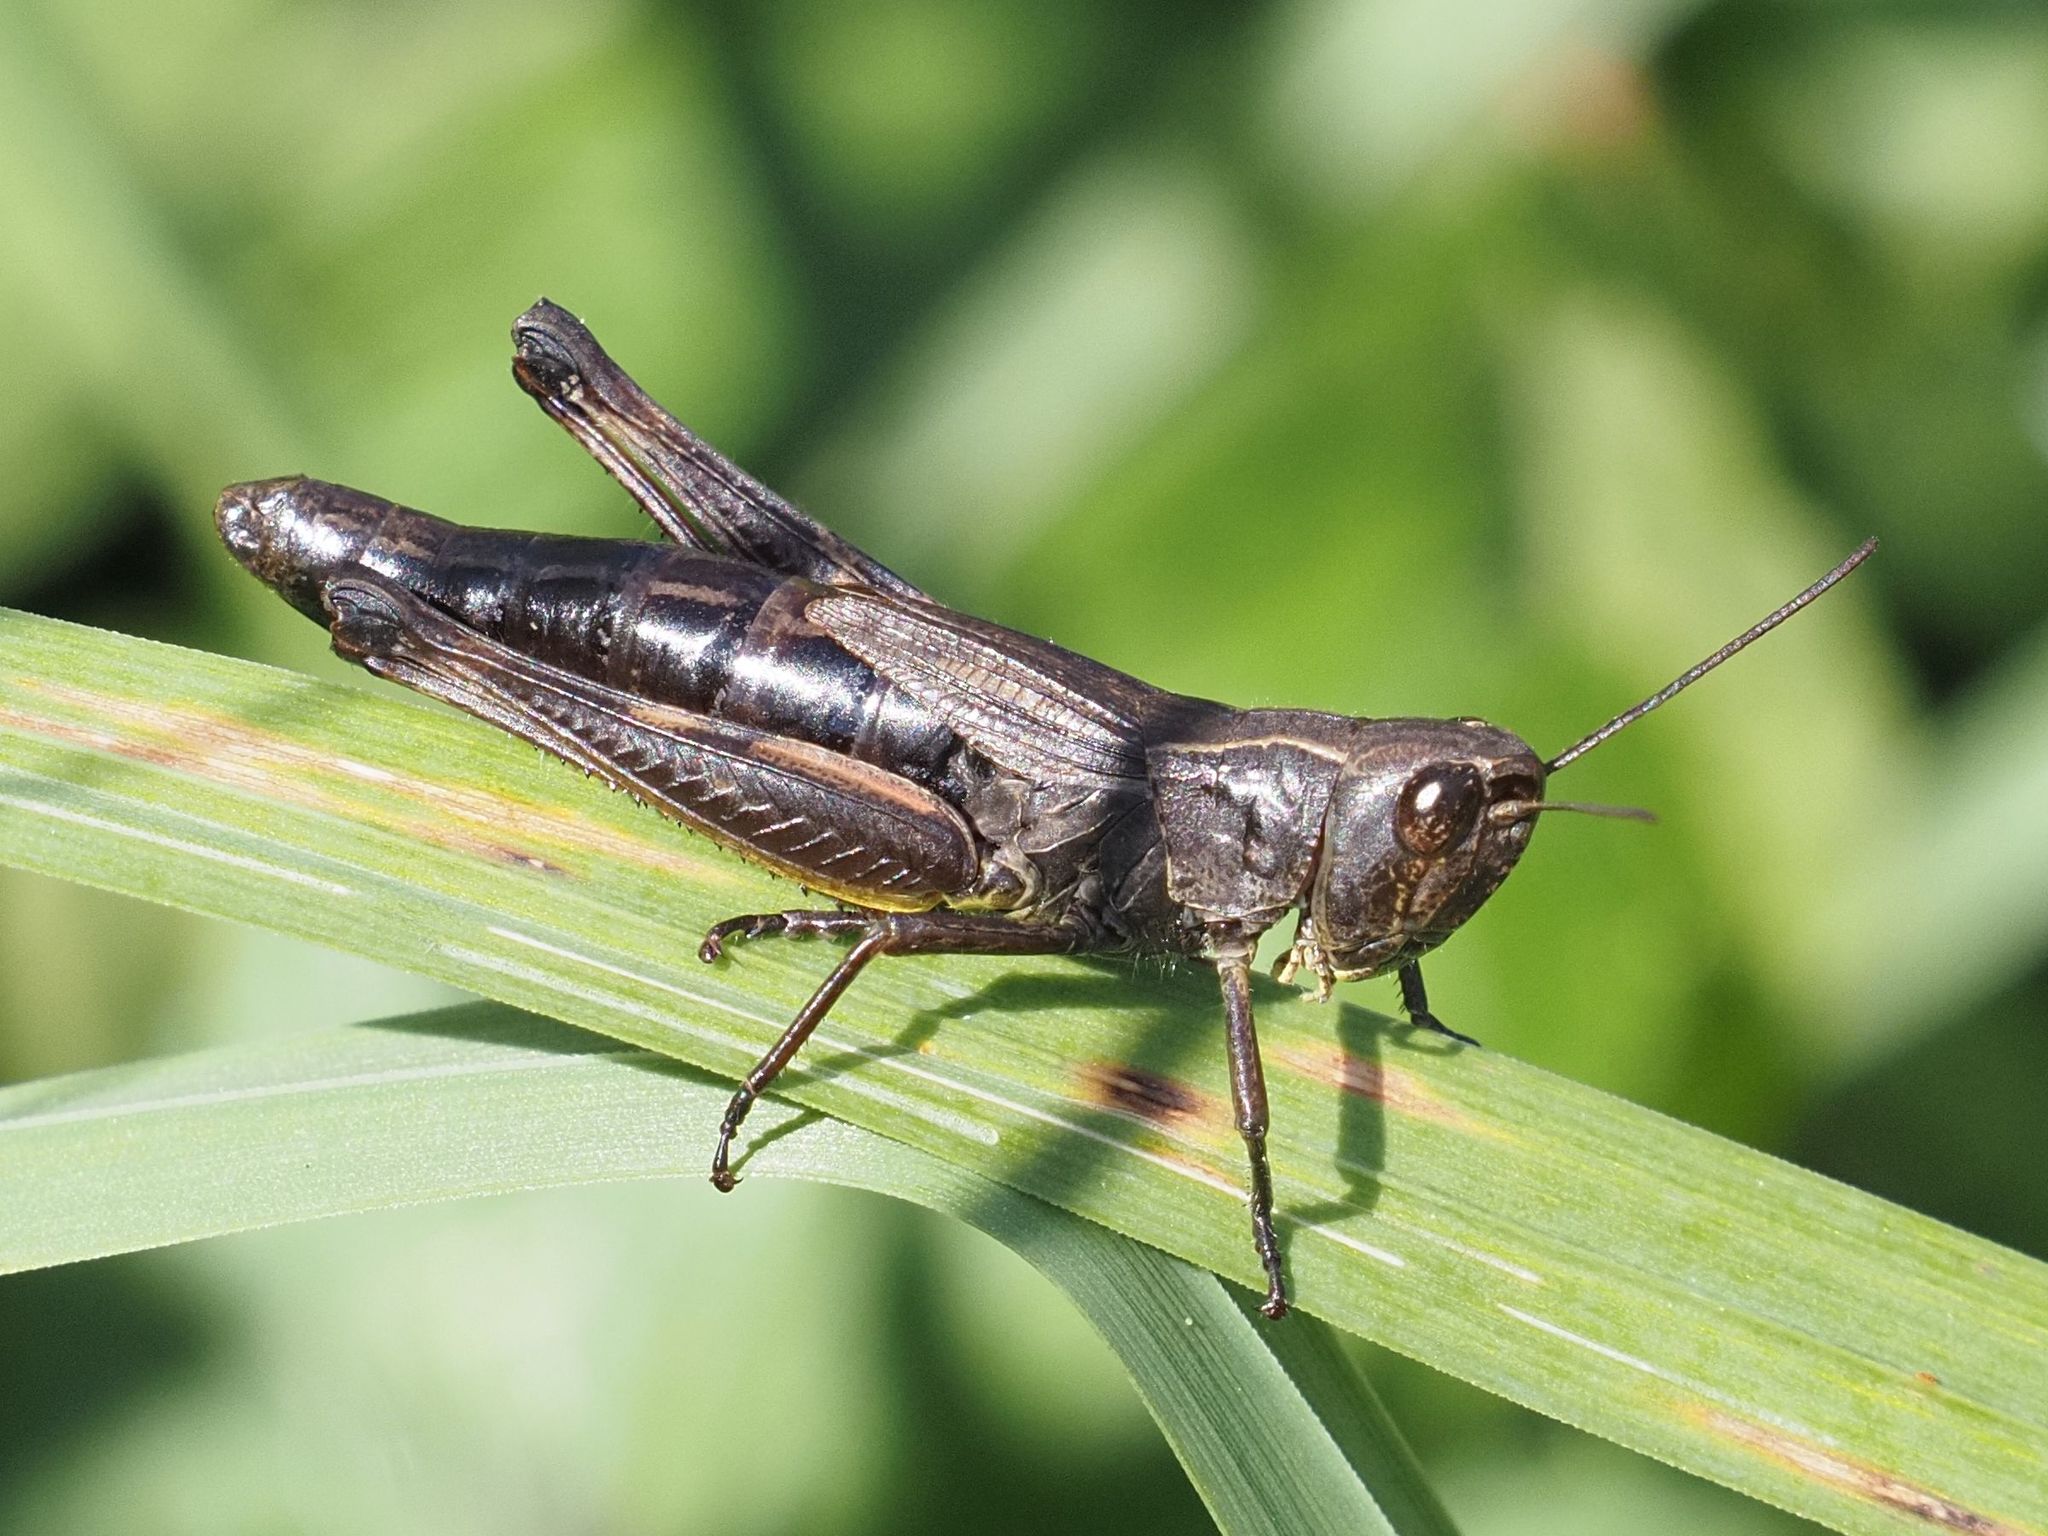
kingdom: Animalia
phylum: Arthropoda
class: Insecta
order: Orthoptera
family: Acrididae
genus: Pseudochorthippus
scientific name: Pseudochorthippus parallelus
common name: Meadow grasshopper
